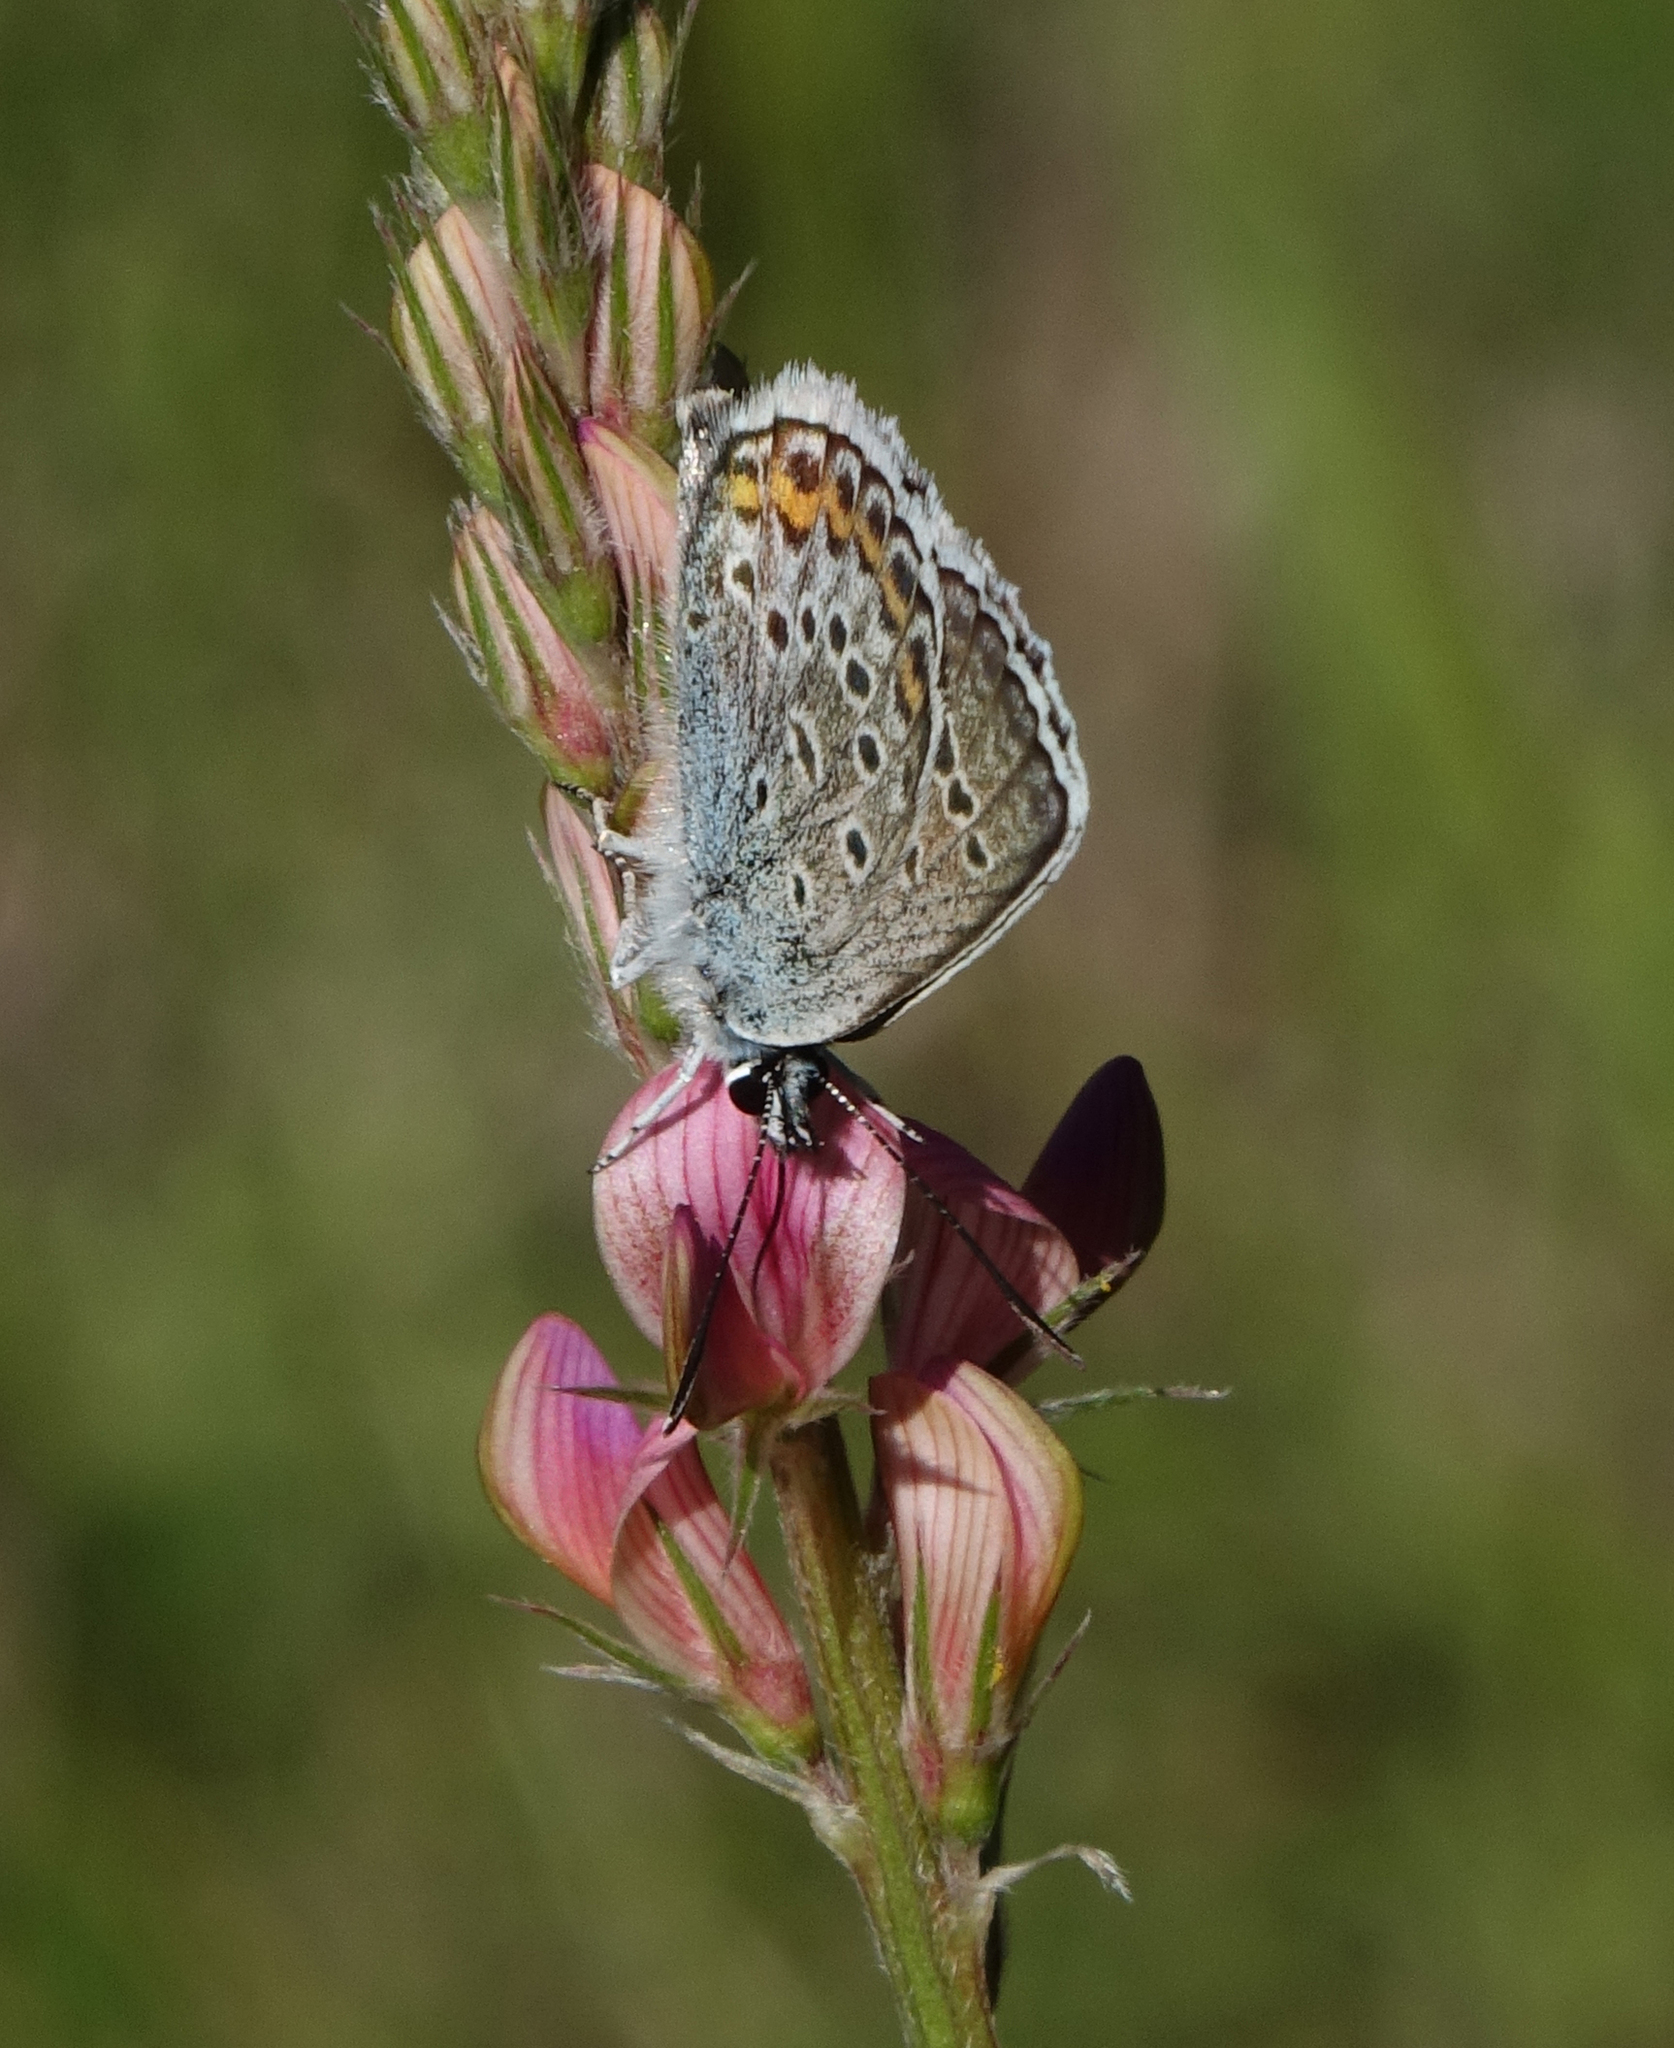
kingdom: Animalia
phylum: Arthropoda
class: Insecta
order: Lepidoptera
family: Lycaenidae
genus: Plebejus
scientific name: Plebejus argus
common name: Silver-studded blue
